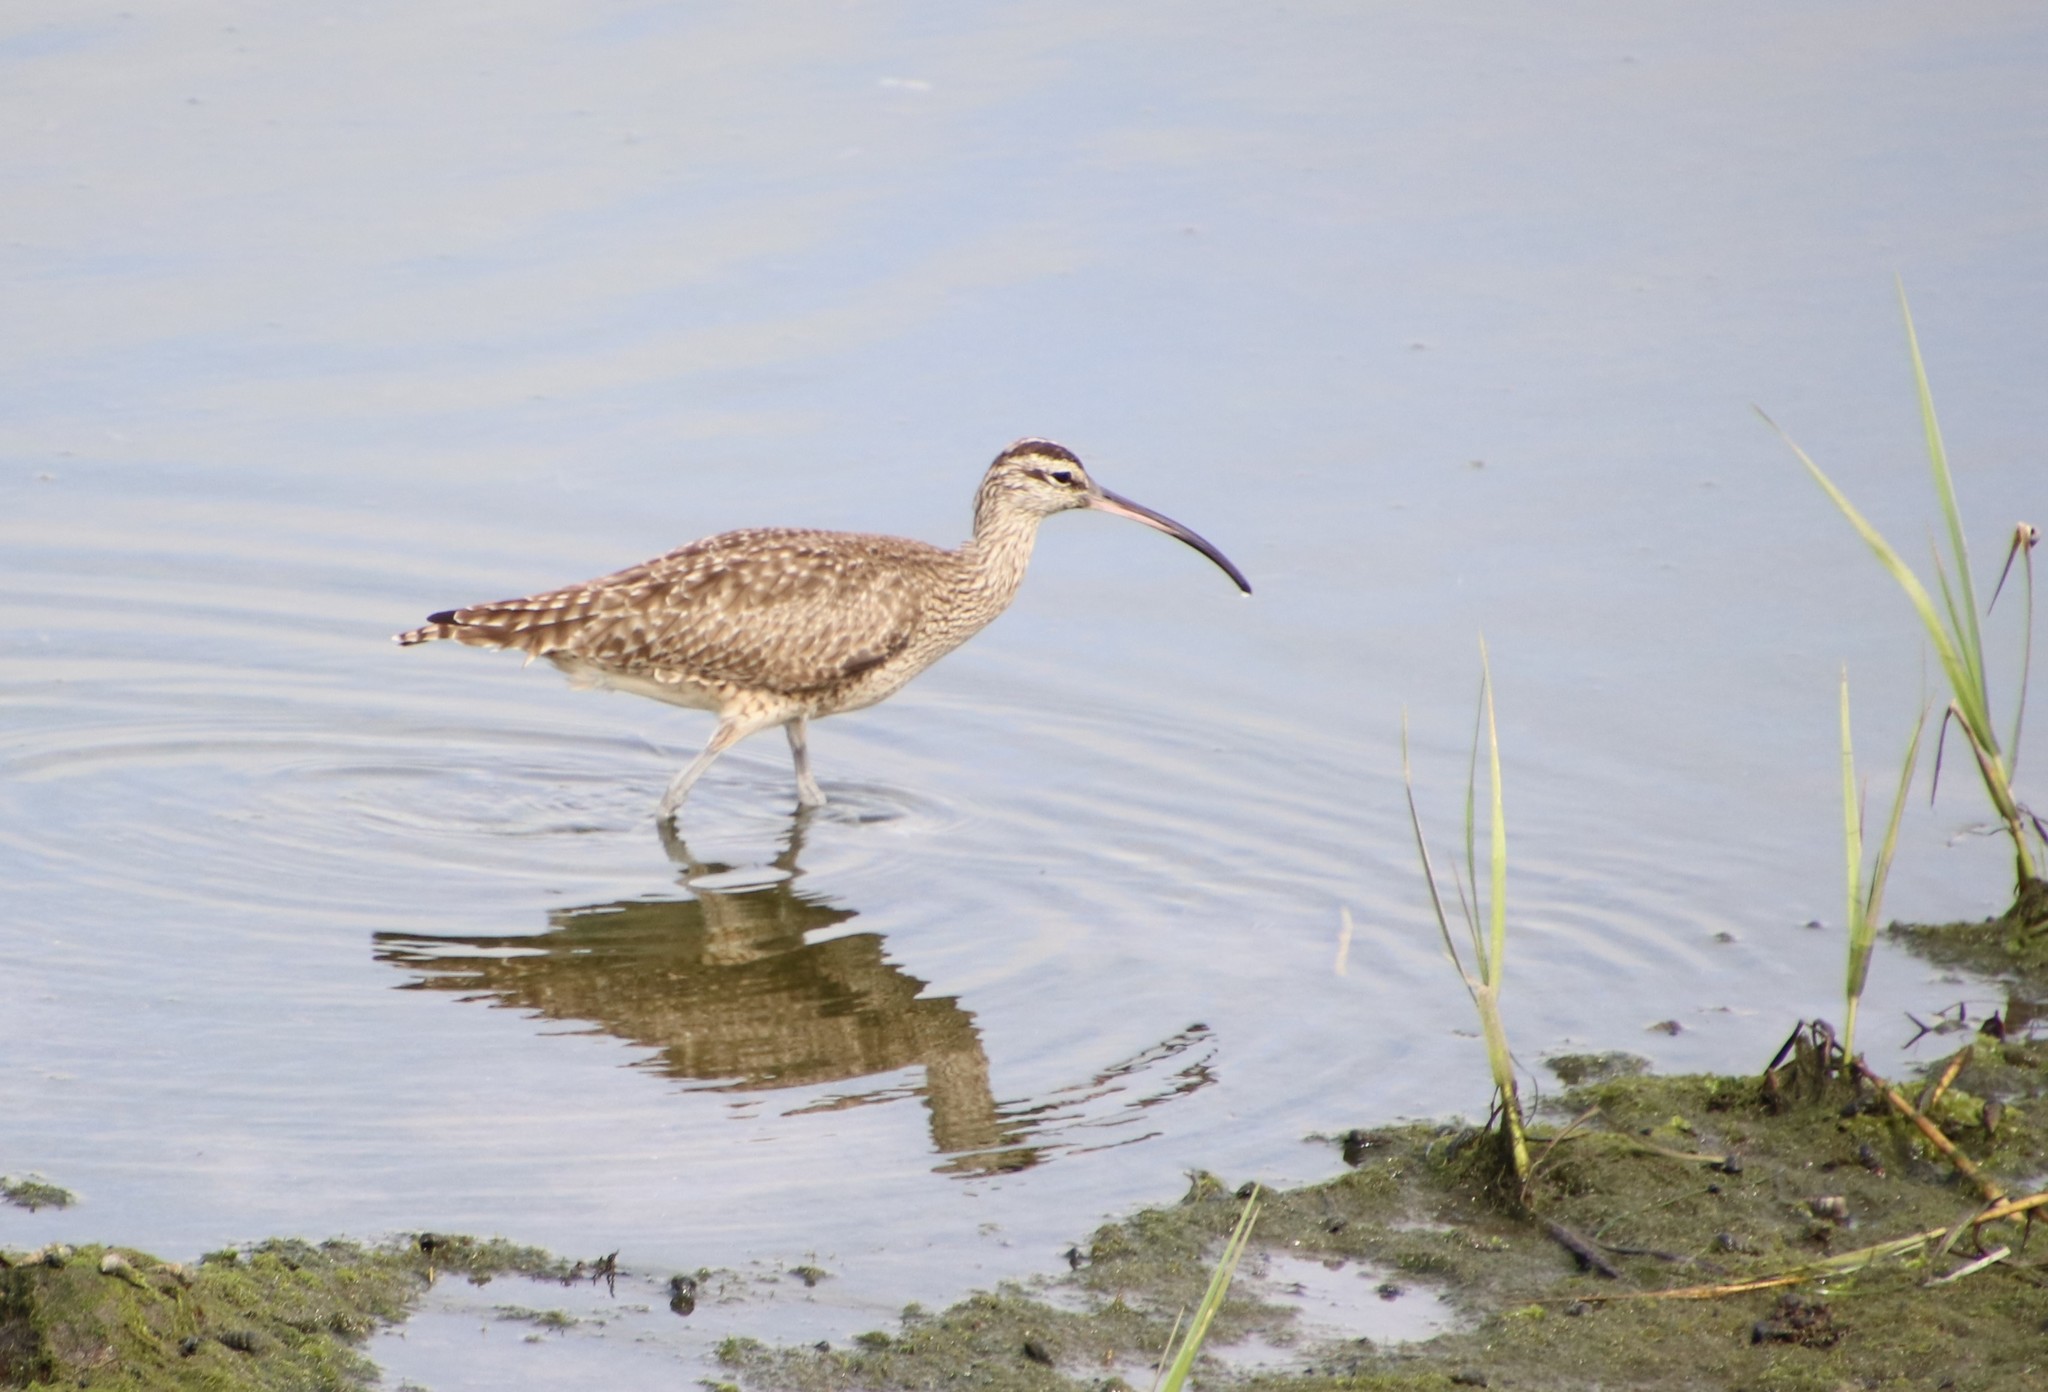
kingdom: Animalia
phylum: Chordata
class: Aves
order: Charadriiformes
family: Scolopacidae
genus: Numenius
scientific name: Numenius phaeopus
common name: Whimbrel
